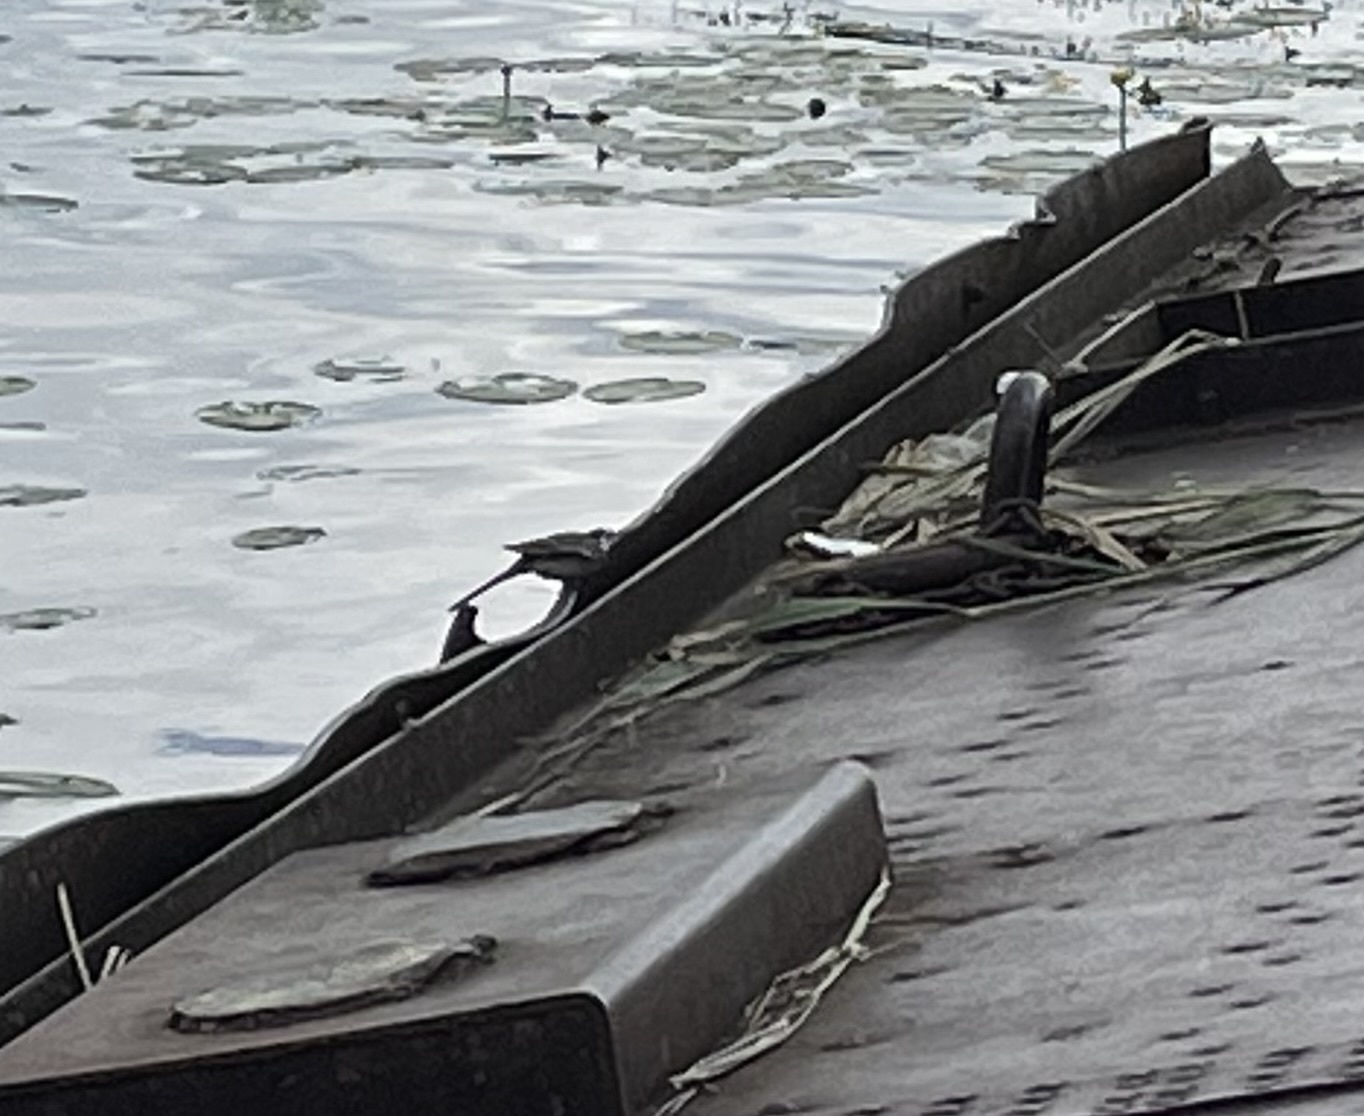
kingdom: Animalia
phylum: Chordata
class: Aves
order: Passeriformes
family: Motacillidae
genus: Motacilla
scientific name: Motacilla alba
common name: White wagtail
